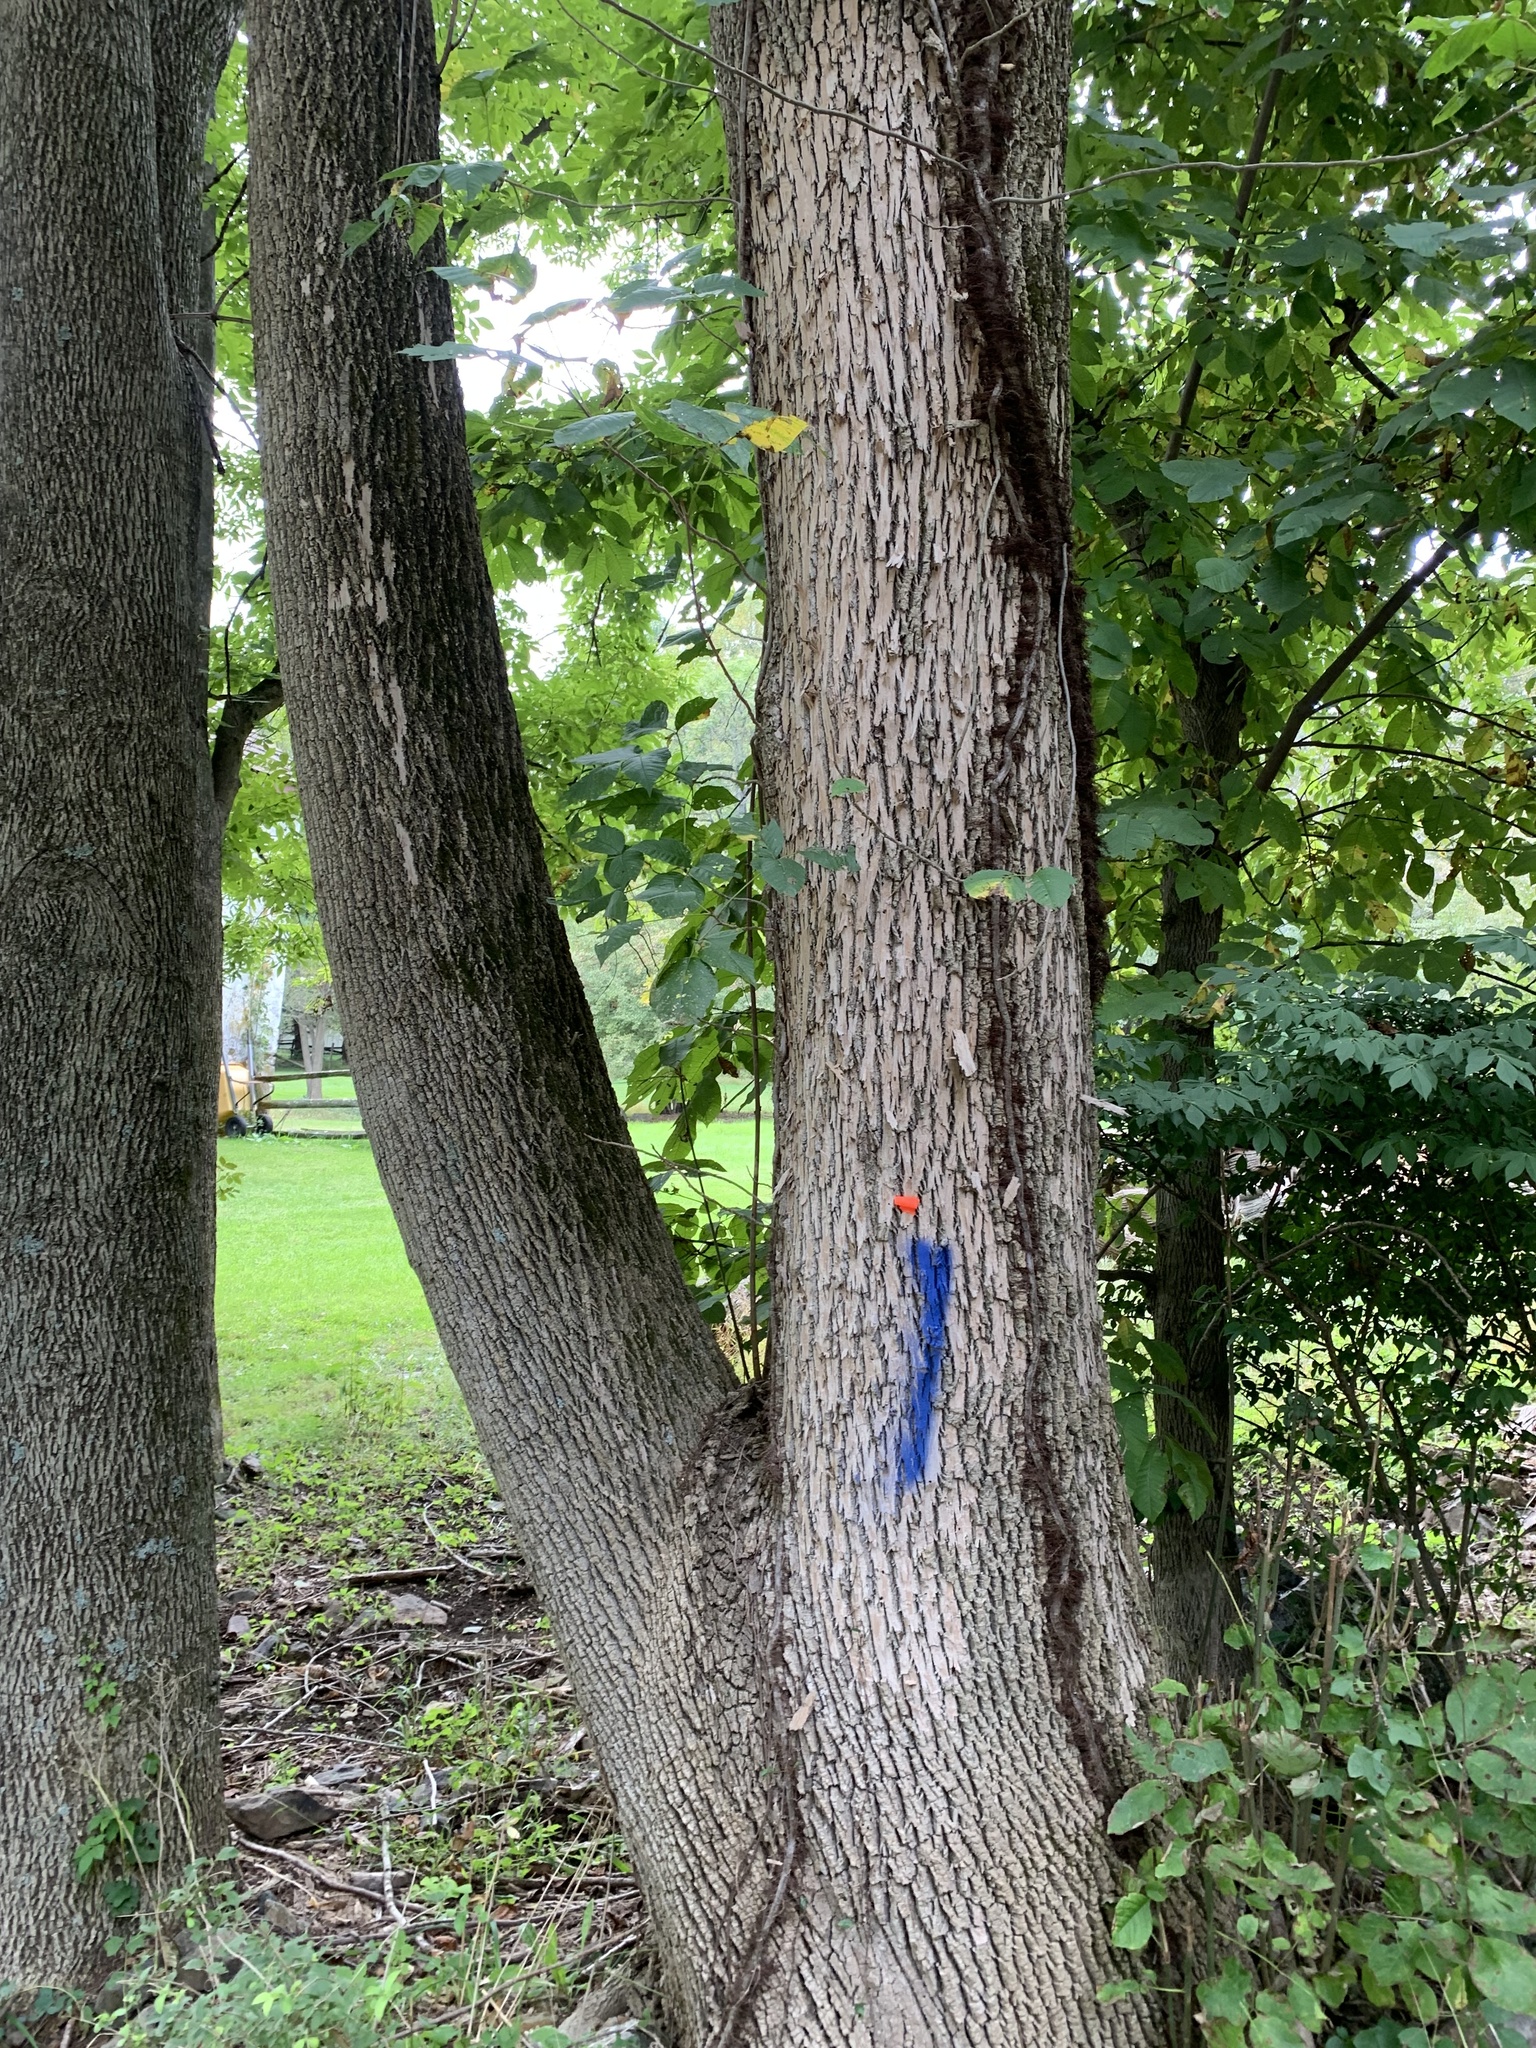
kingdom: Animalia
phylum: Arthropoda
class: Insecta
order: Coleoptera
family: Buprestidae
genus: Agrilus
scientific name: Agrilus planipennis
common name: Emerald ash borer
